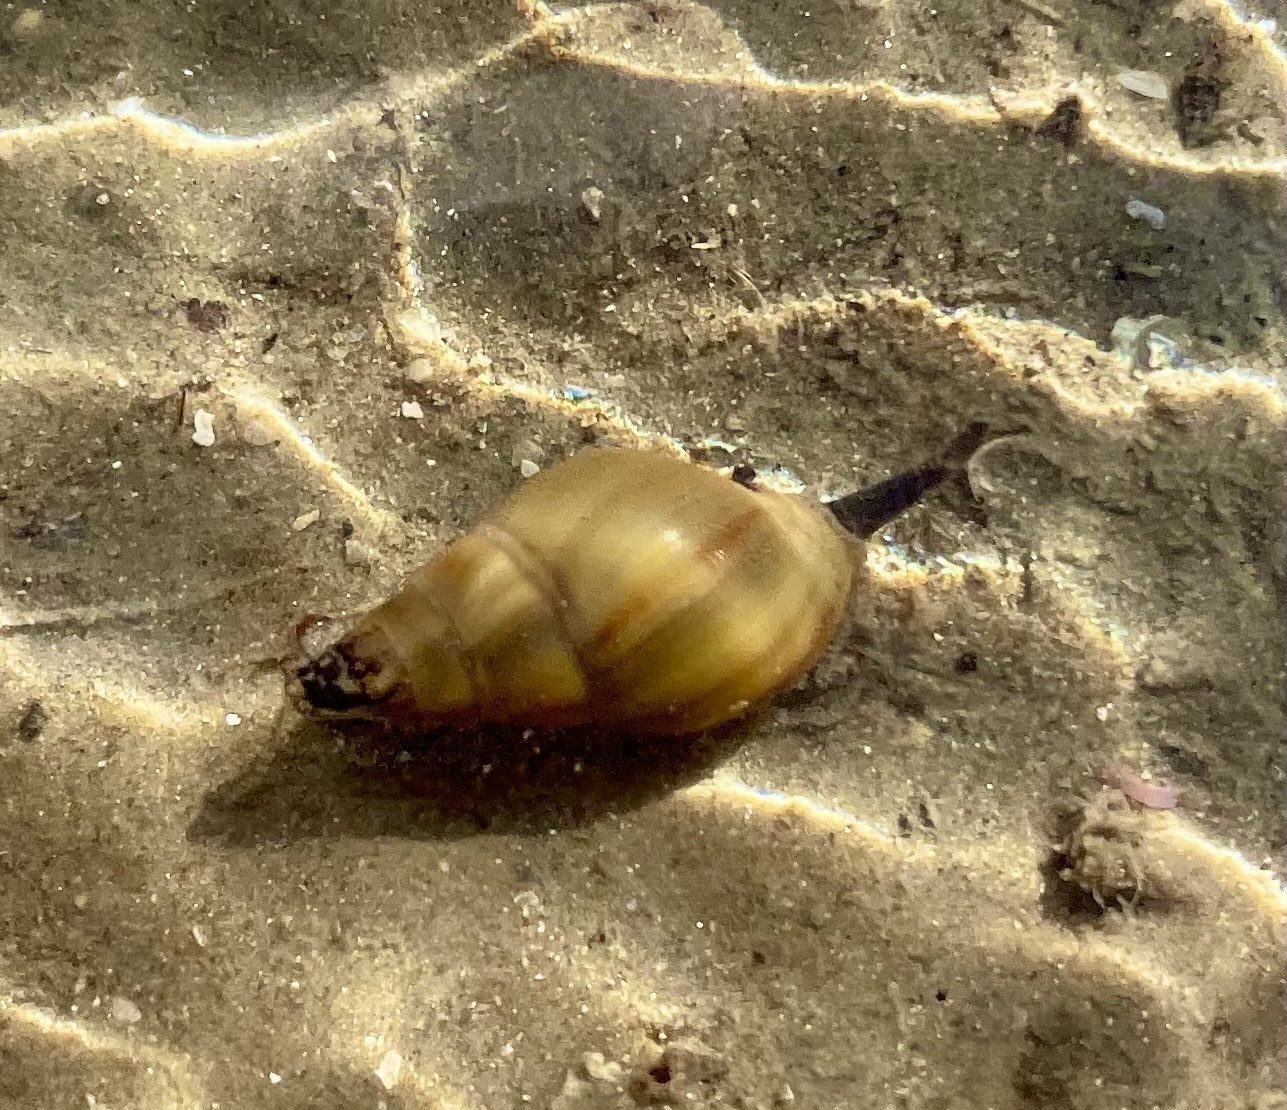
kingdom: Animalia
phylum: Mollusca
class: Gastropoda
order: Neogastropoda
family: Nassariidae
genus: Nassarius
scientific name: Nassarius dorsatus
